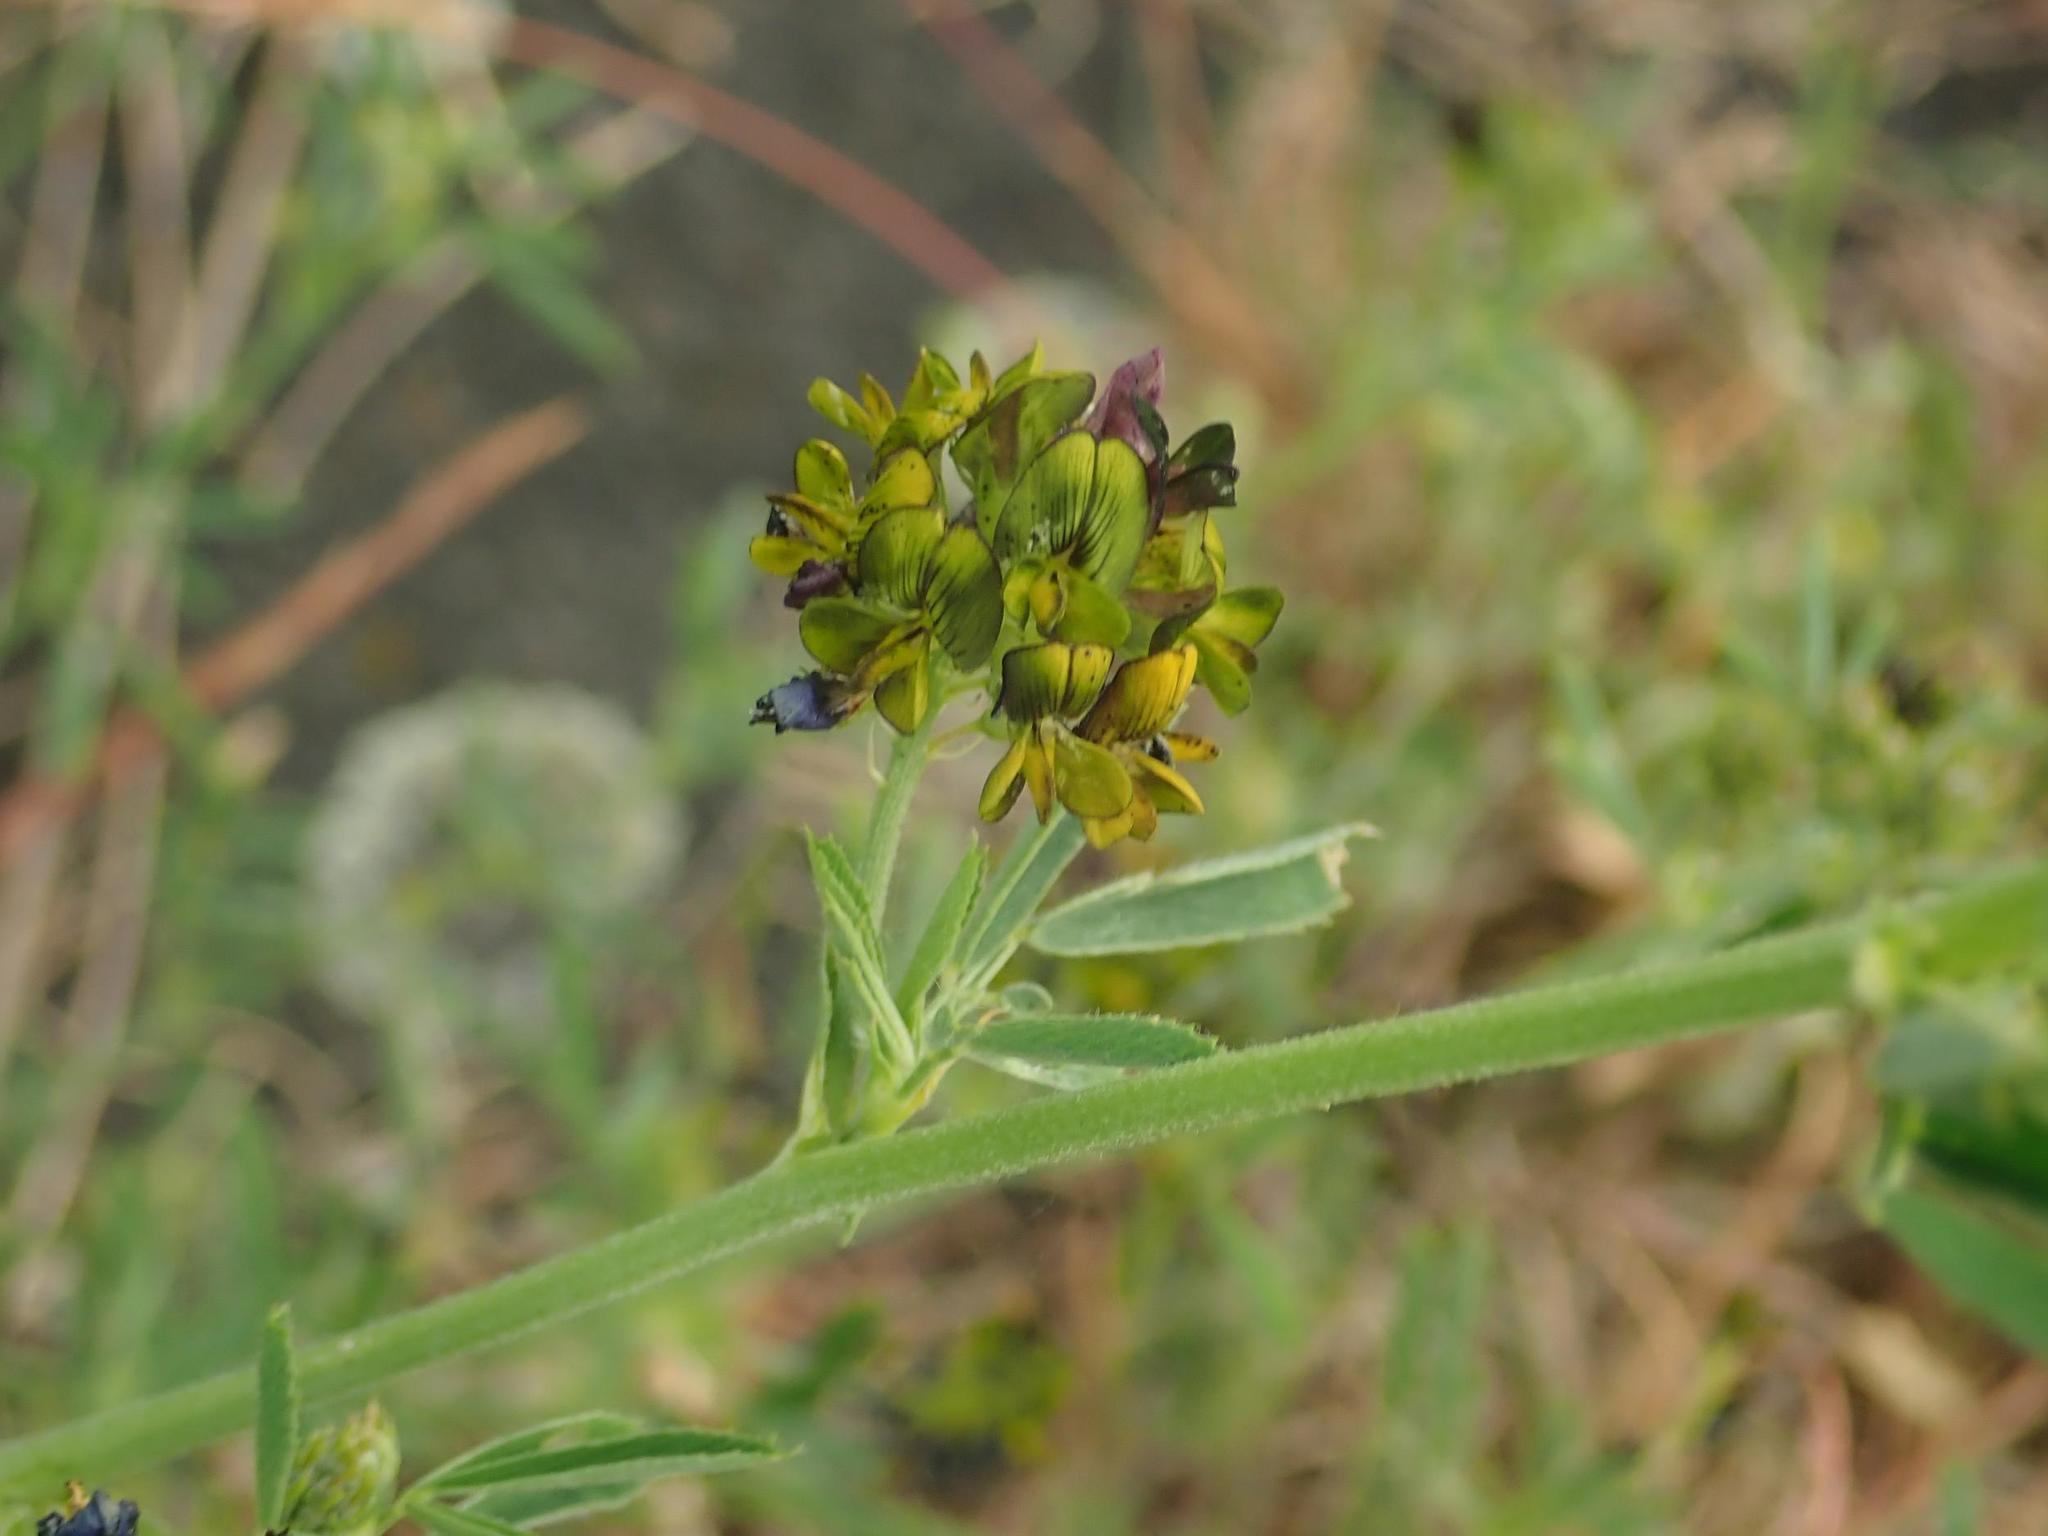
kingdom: Plantae
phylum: Tracheophyta
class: Magnoliopsida
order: Fabales
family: Fabaceae
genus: Medicago
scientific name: Medicago varia
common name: Sand lucerne
